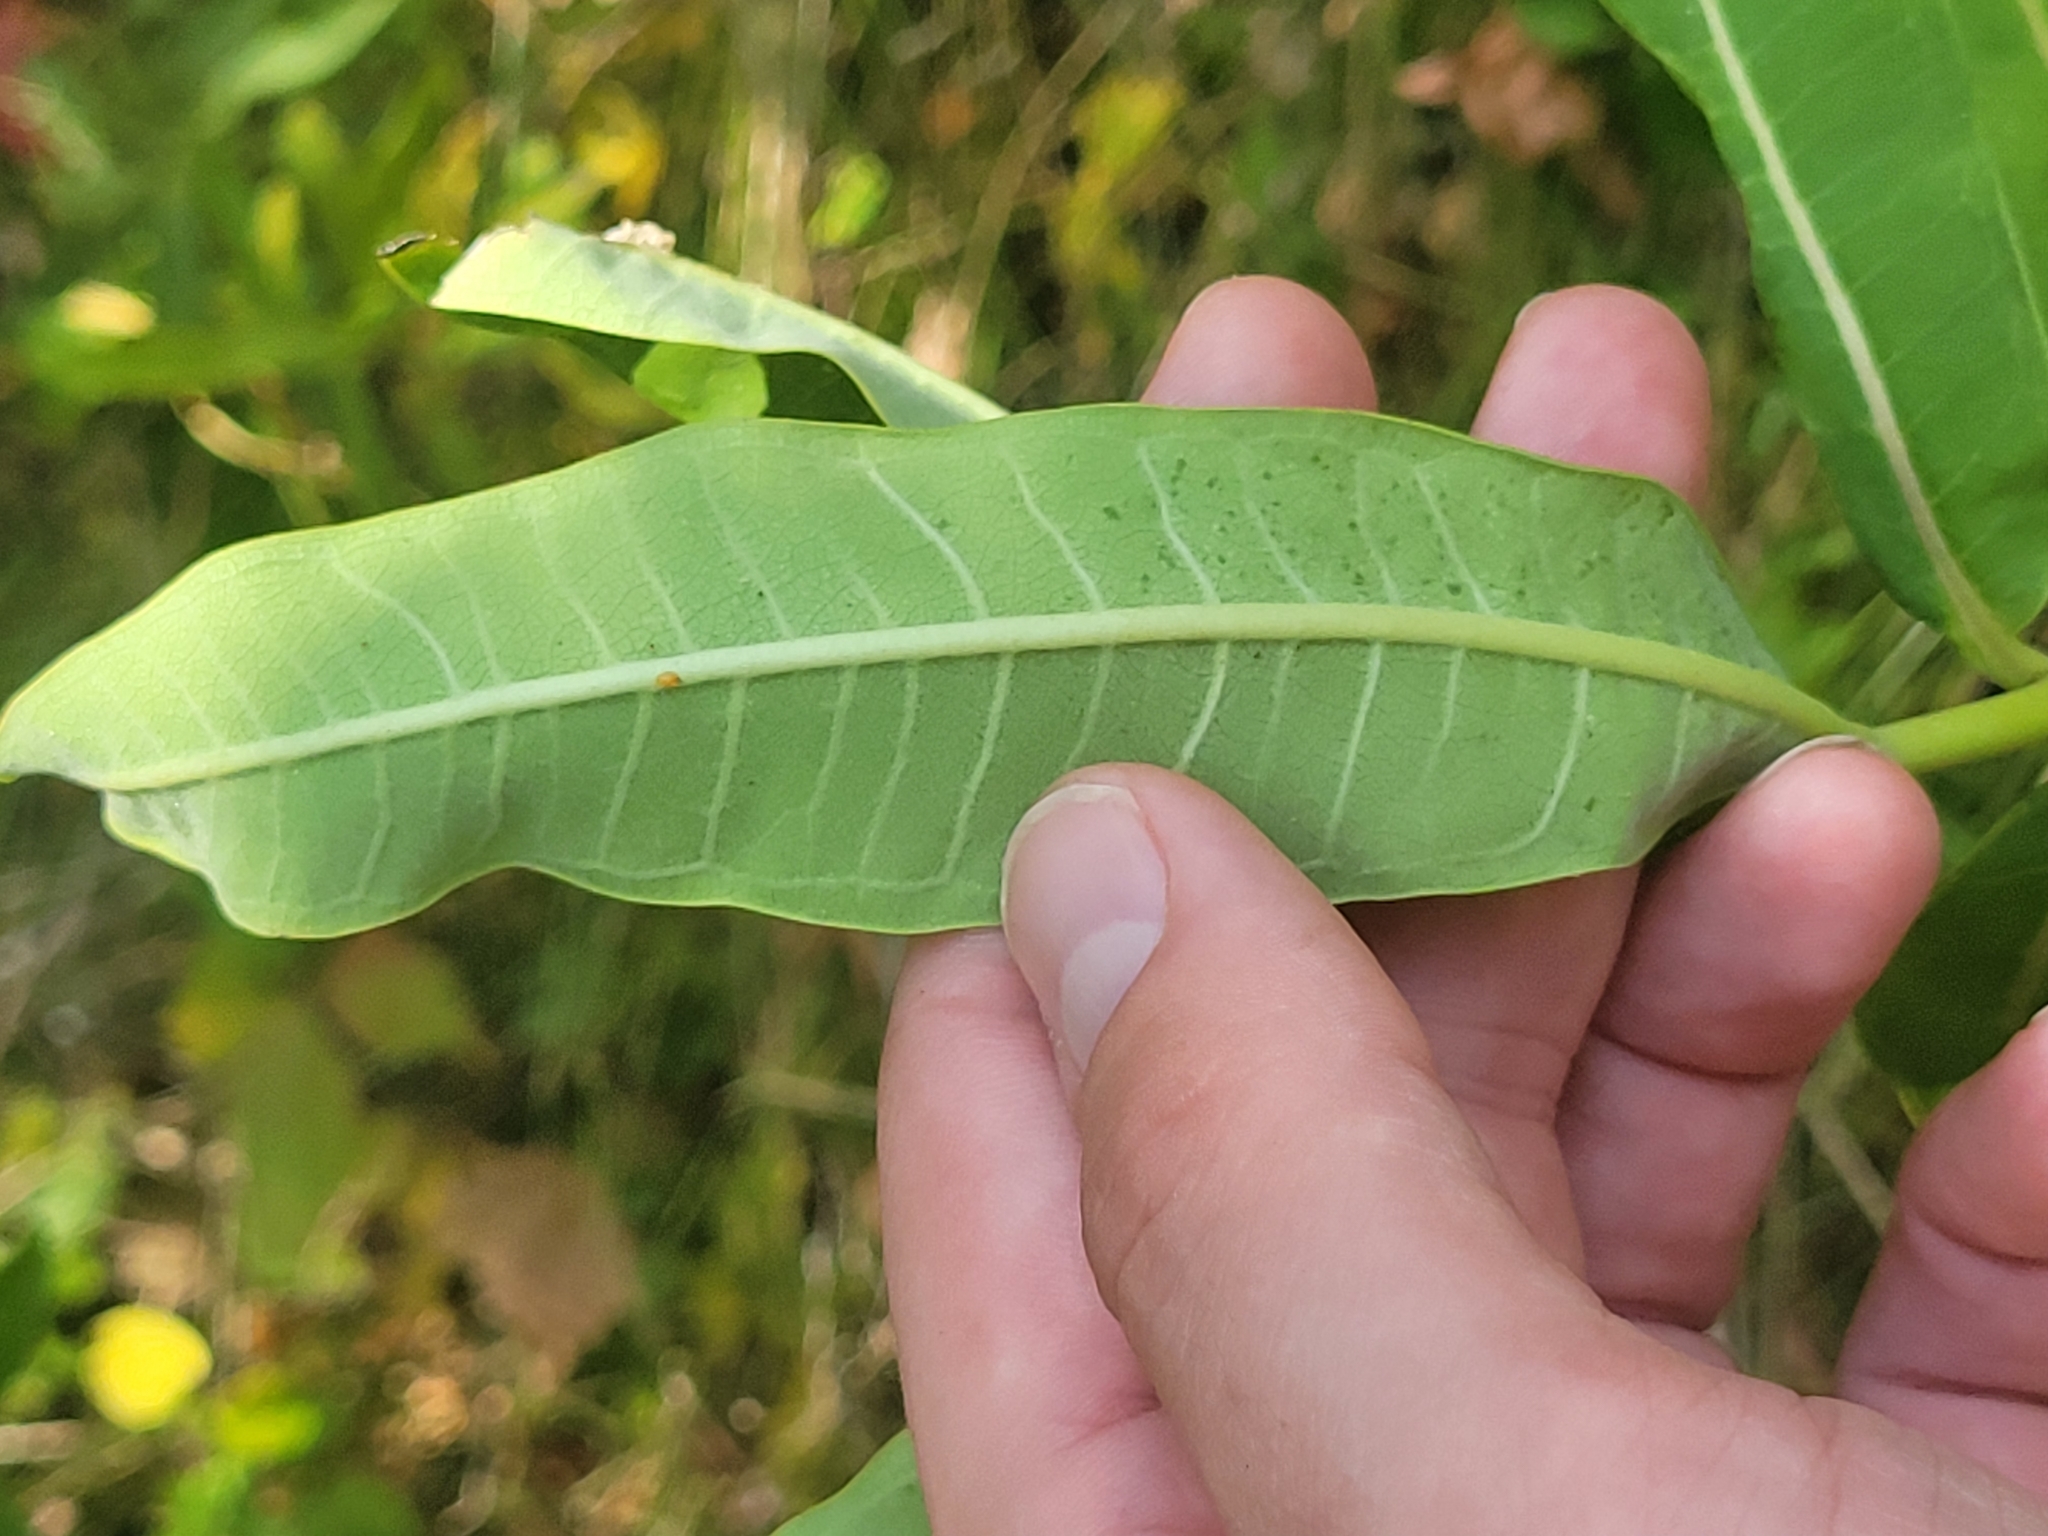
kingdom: Plantae
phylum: Tracheophyta
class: Magnoliopsida
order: Gentianales
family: Apocynaceae
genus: Asclepias
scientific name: Asclepias syriaca
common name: Common milkweed
